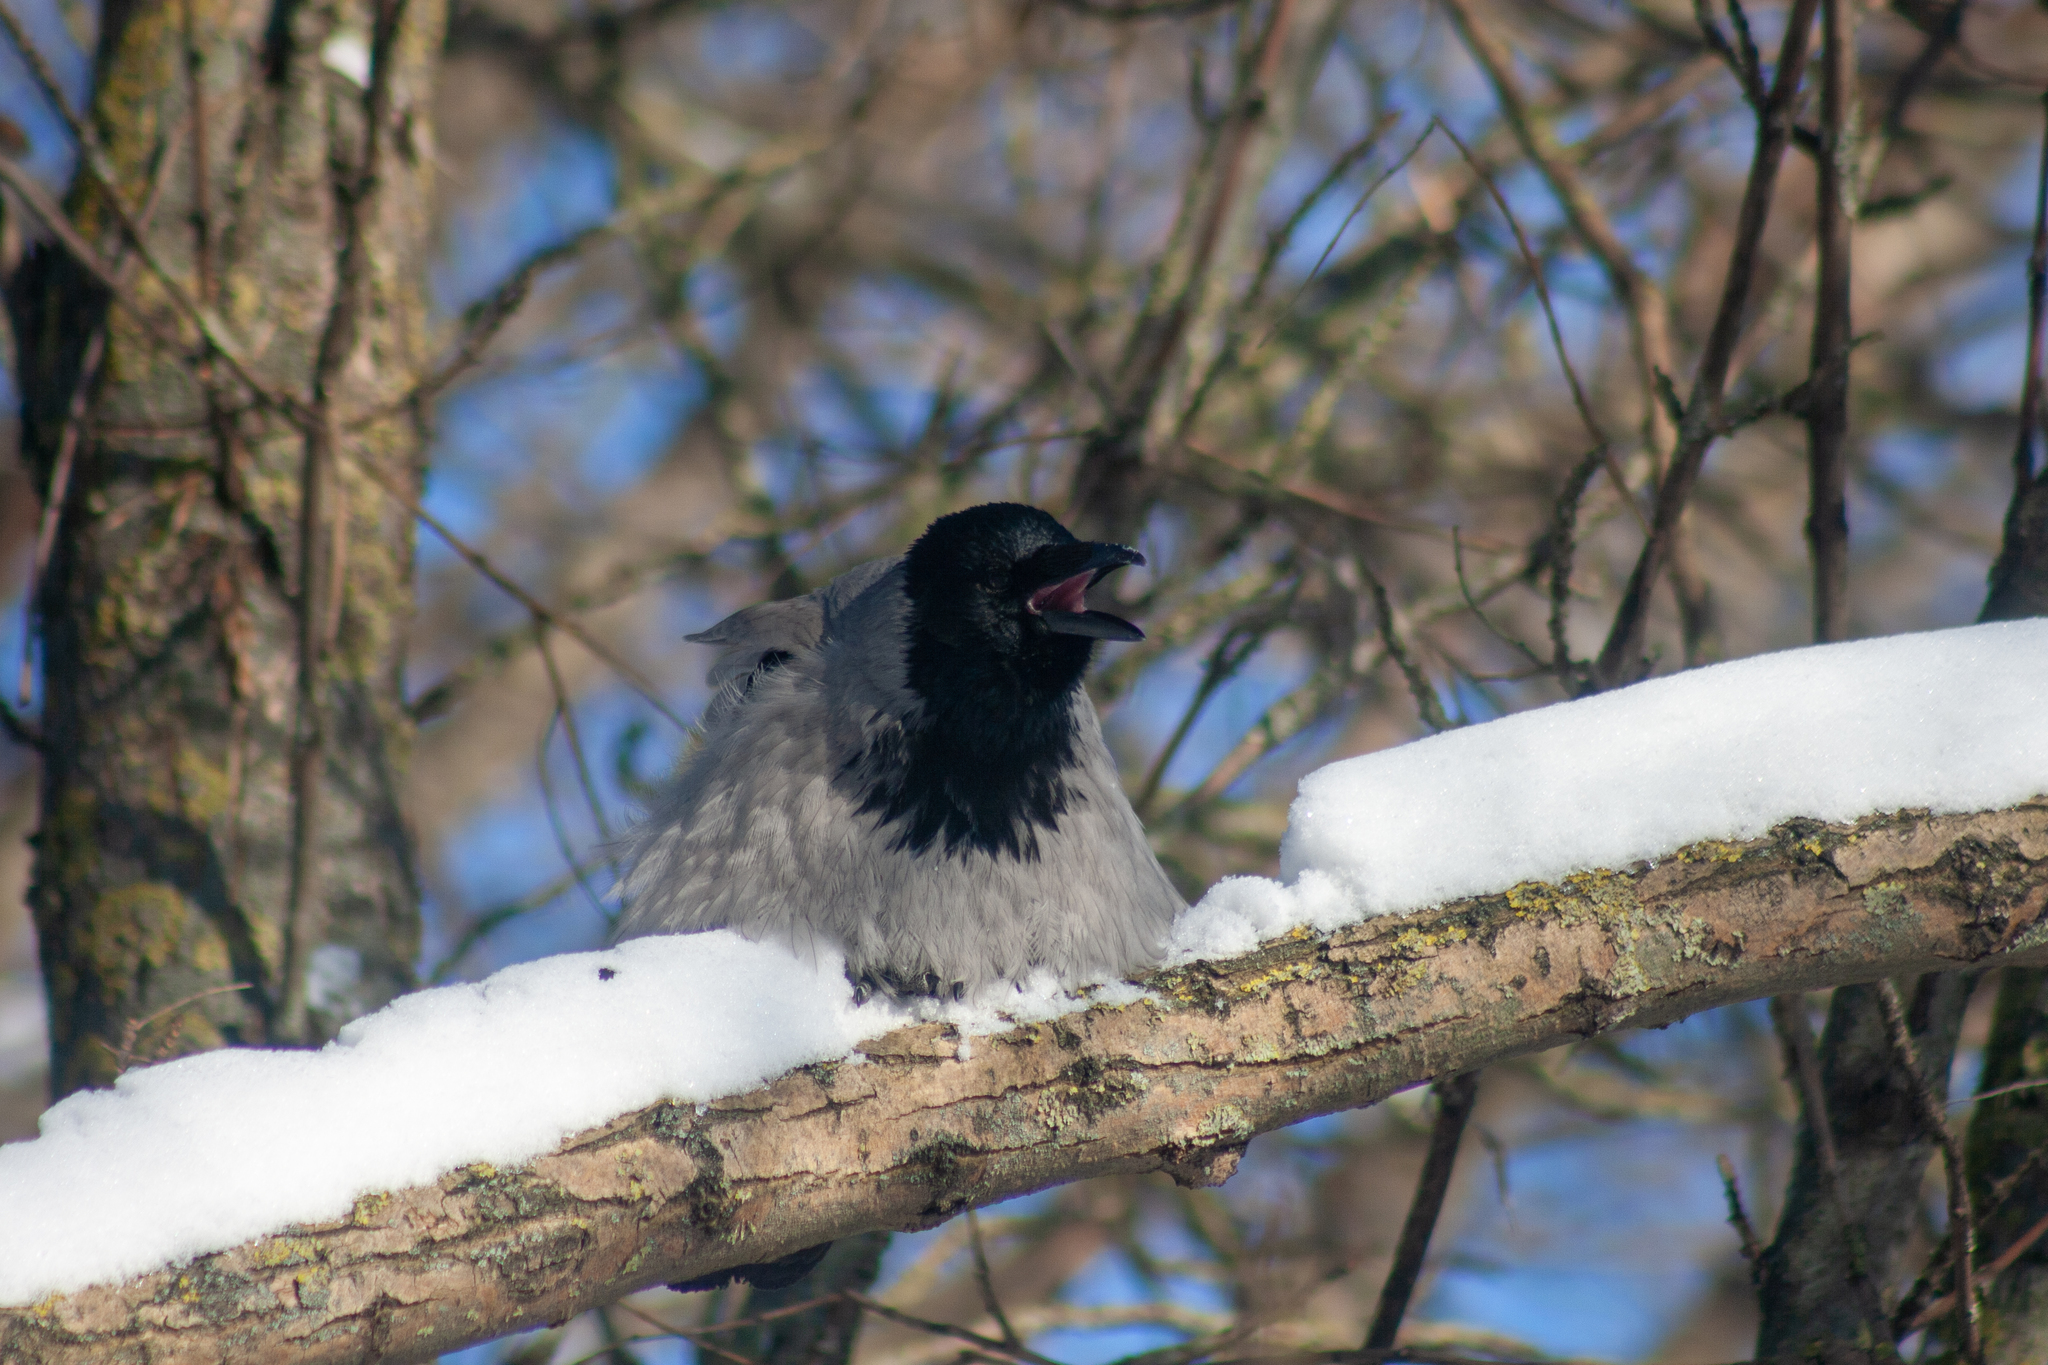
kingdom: Animalia
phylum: Chordata
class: Aves
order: Passeriformes
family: Corvidae
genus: Corvus
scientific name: Corvus cornix
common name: Hooded crow
